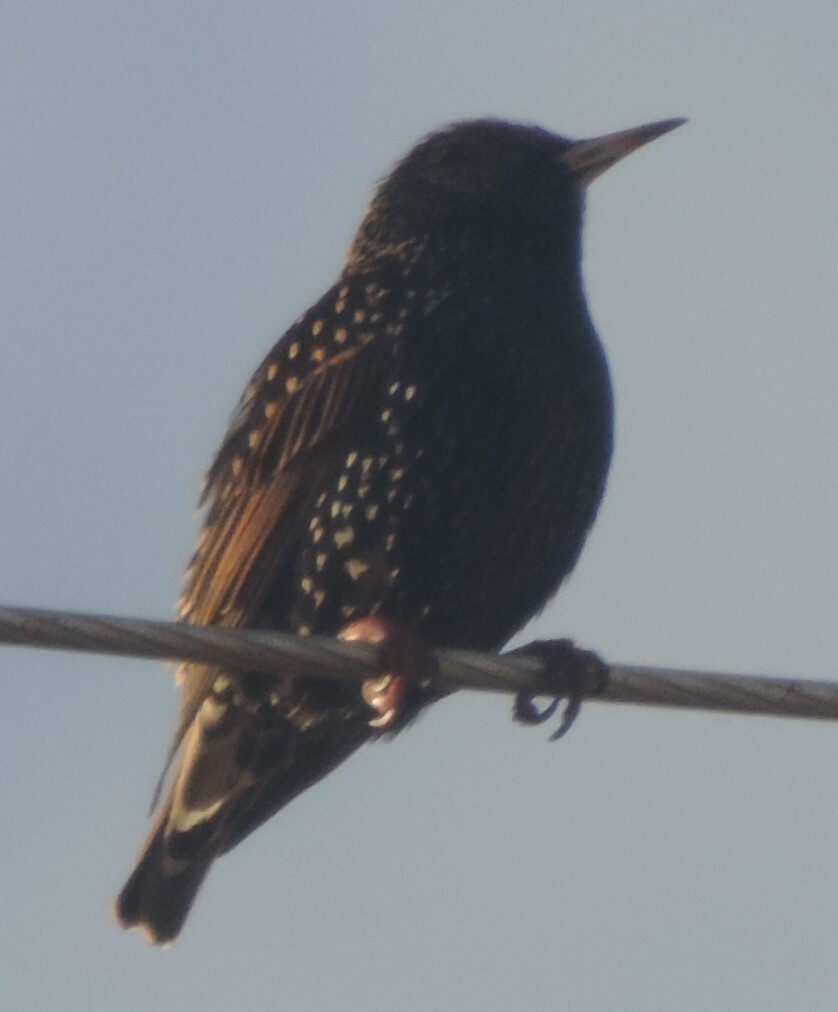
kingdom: Animalia
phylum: Chordata
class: Aves
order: Passeriformes
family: Sturnidae
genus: Sturnus
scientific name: Sturnus vulgaris
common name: Common starling
